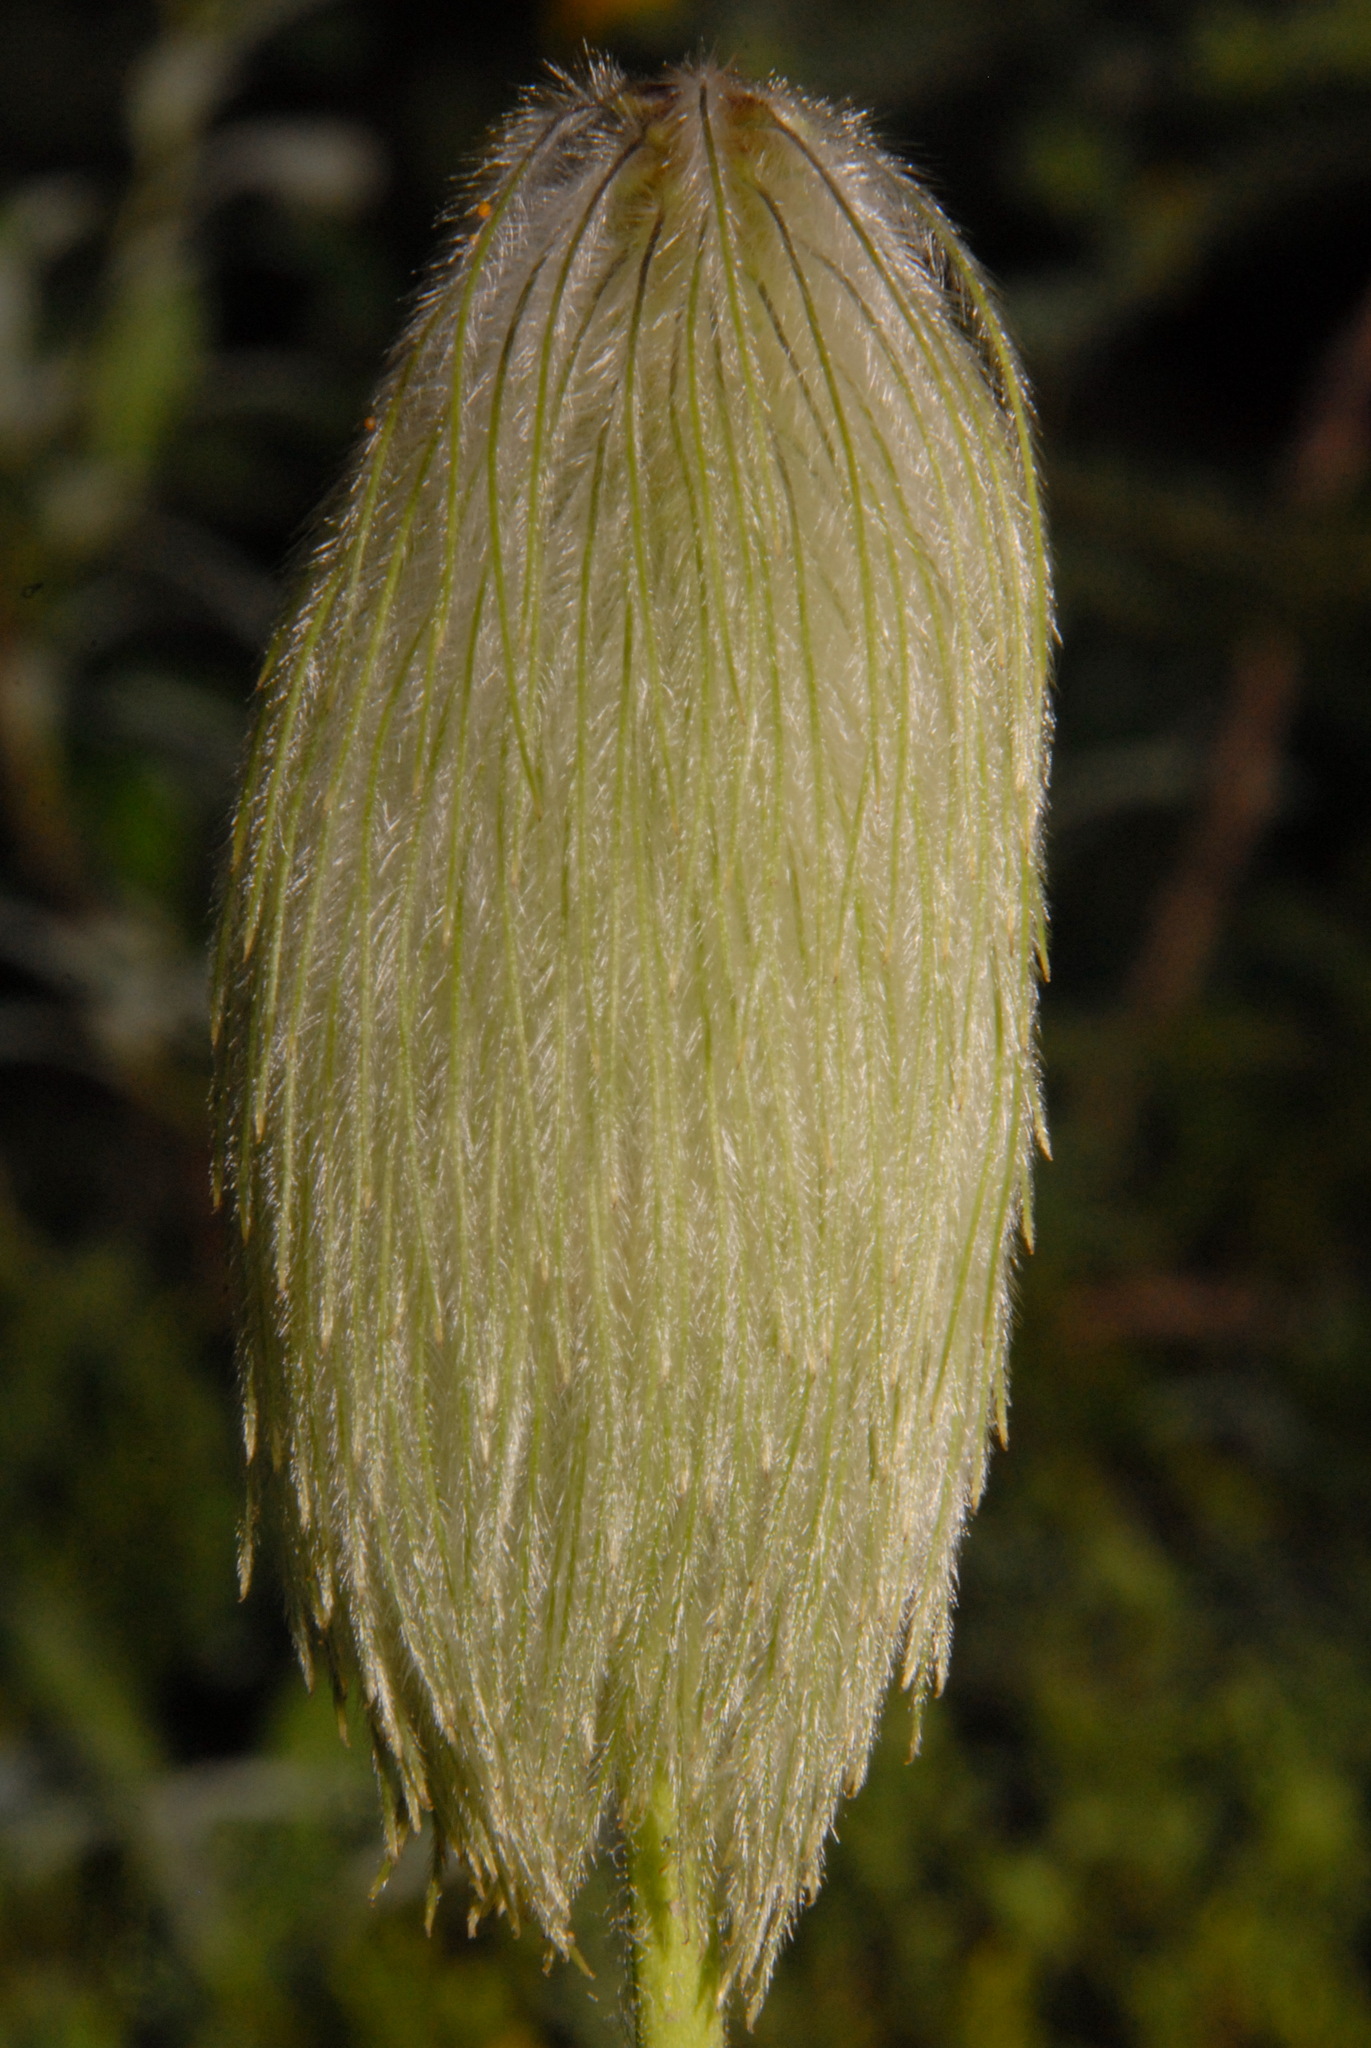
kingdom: Plantae
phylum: Tracheophyta
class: Magnoliopsida
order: Ranunculales
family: Ranunculaceae
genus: Pulsatilla
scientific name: Pulsatilla occidentalis
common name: Mountain pasqueflower
